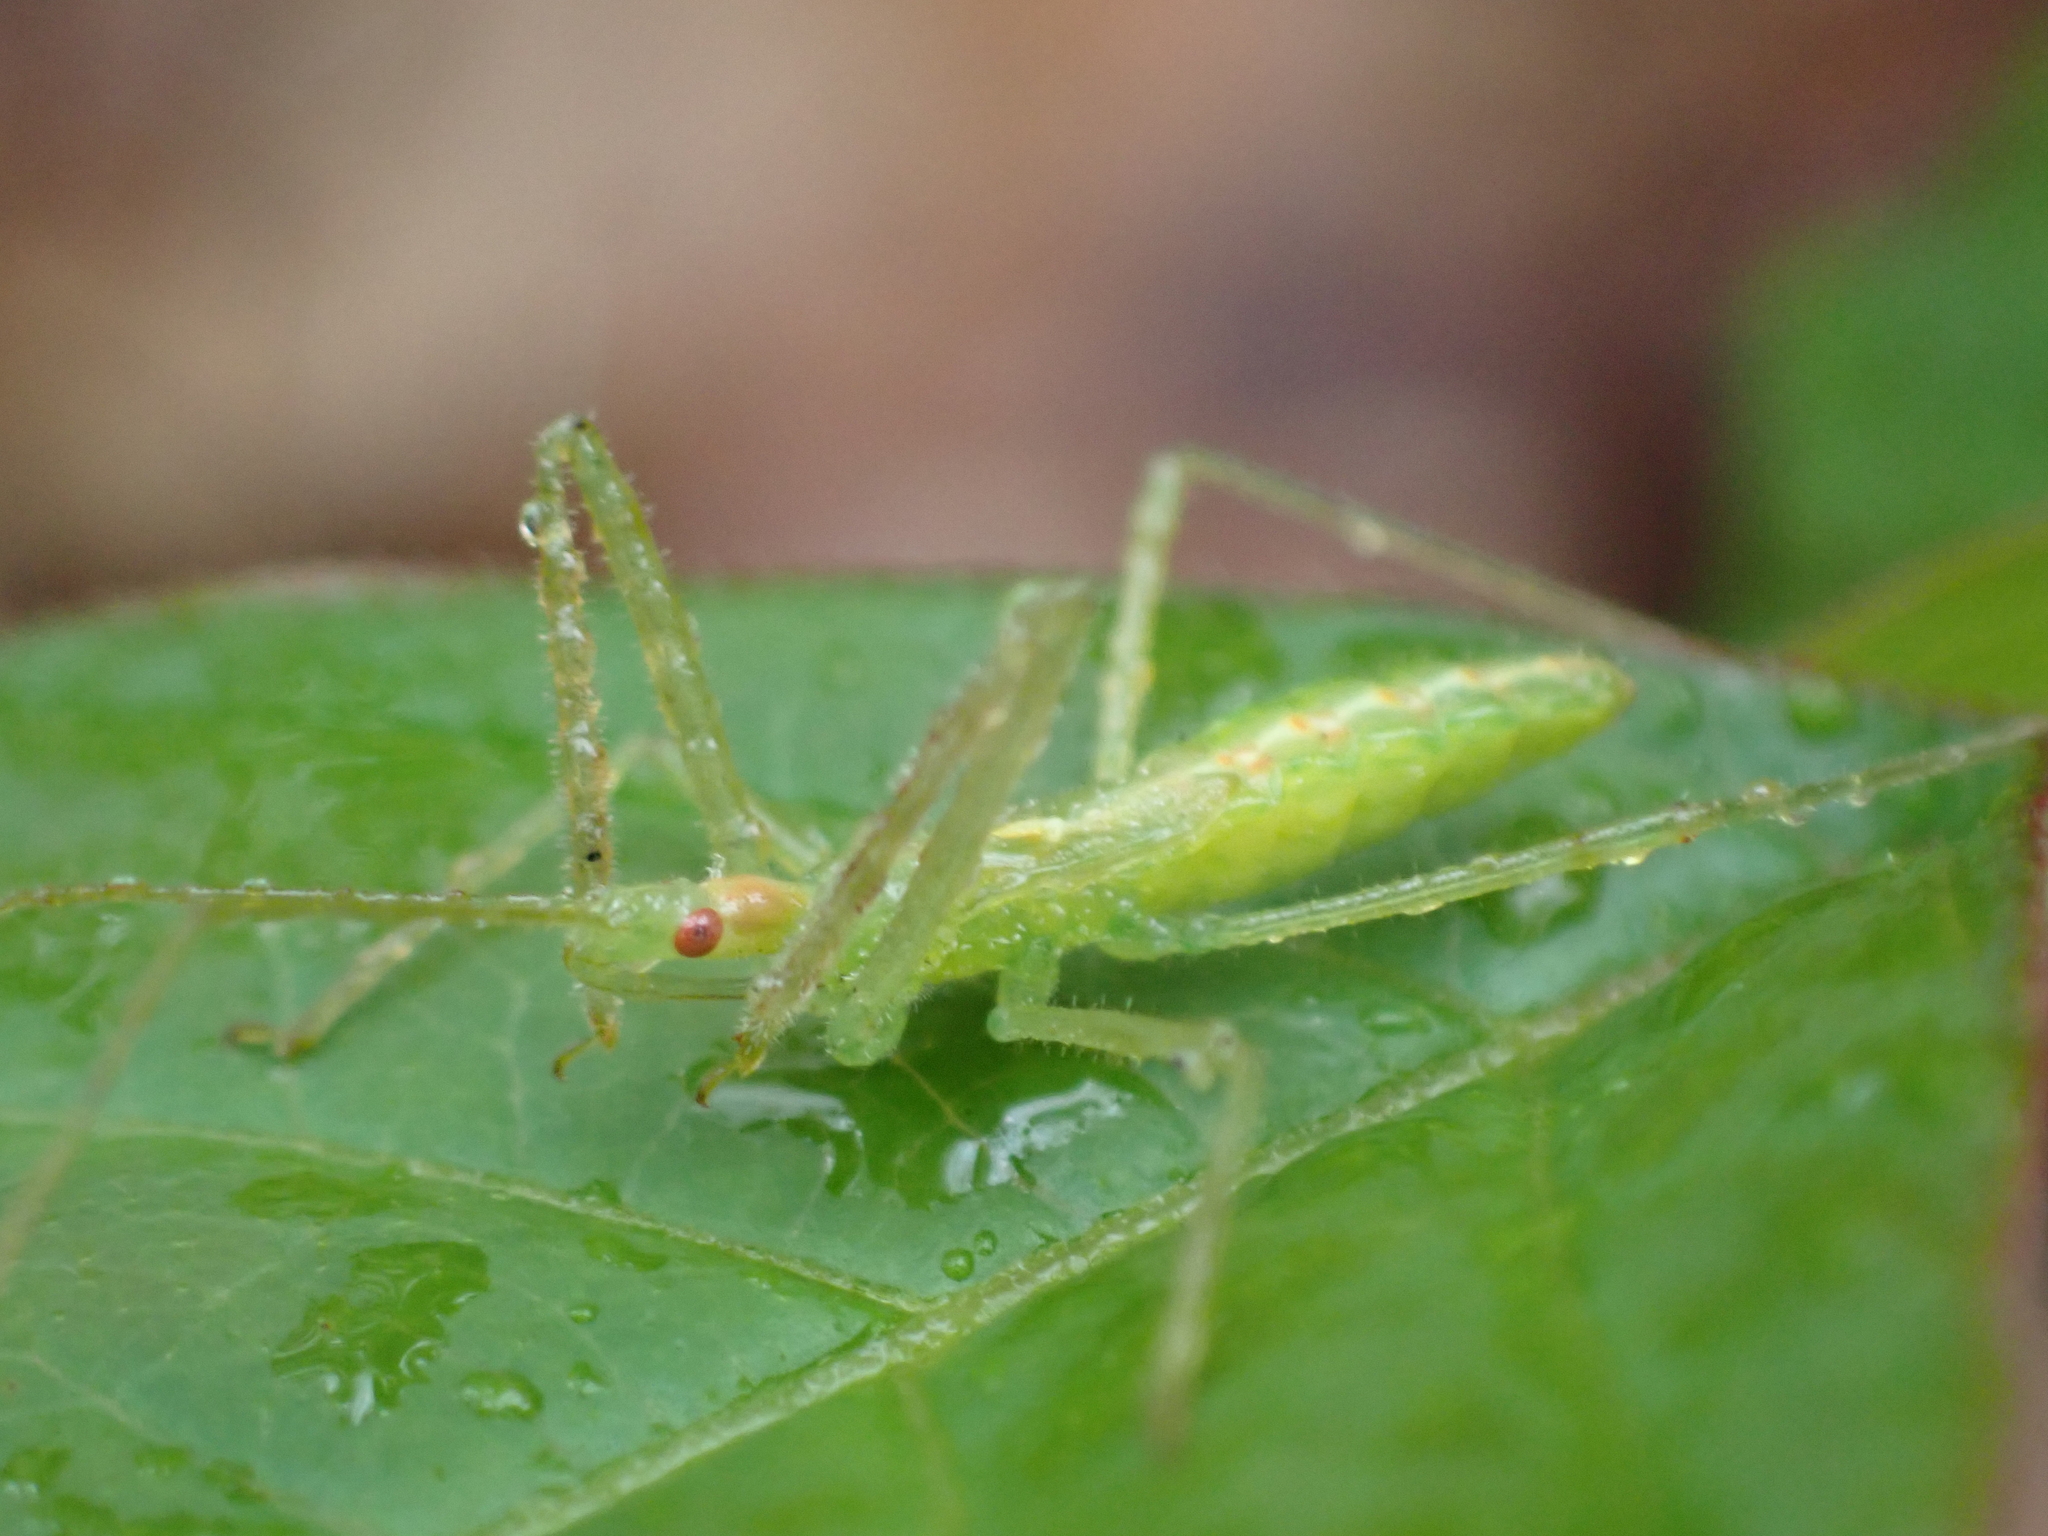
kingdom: Animalia
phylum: Arthropoda
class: Insecta
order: Hemiptera
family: Reduviidae
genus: Zelus
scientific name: Zelus luridus
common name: Pale green assassin bug
